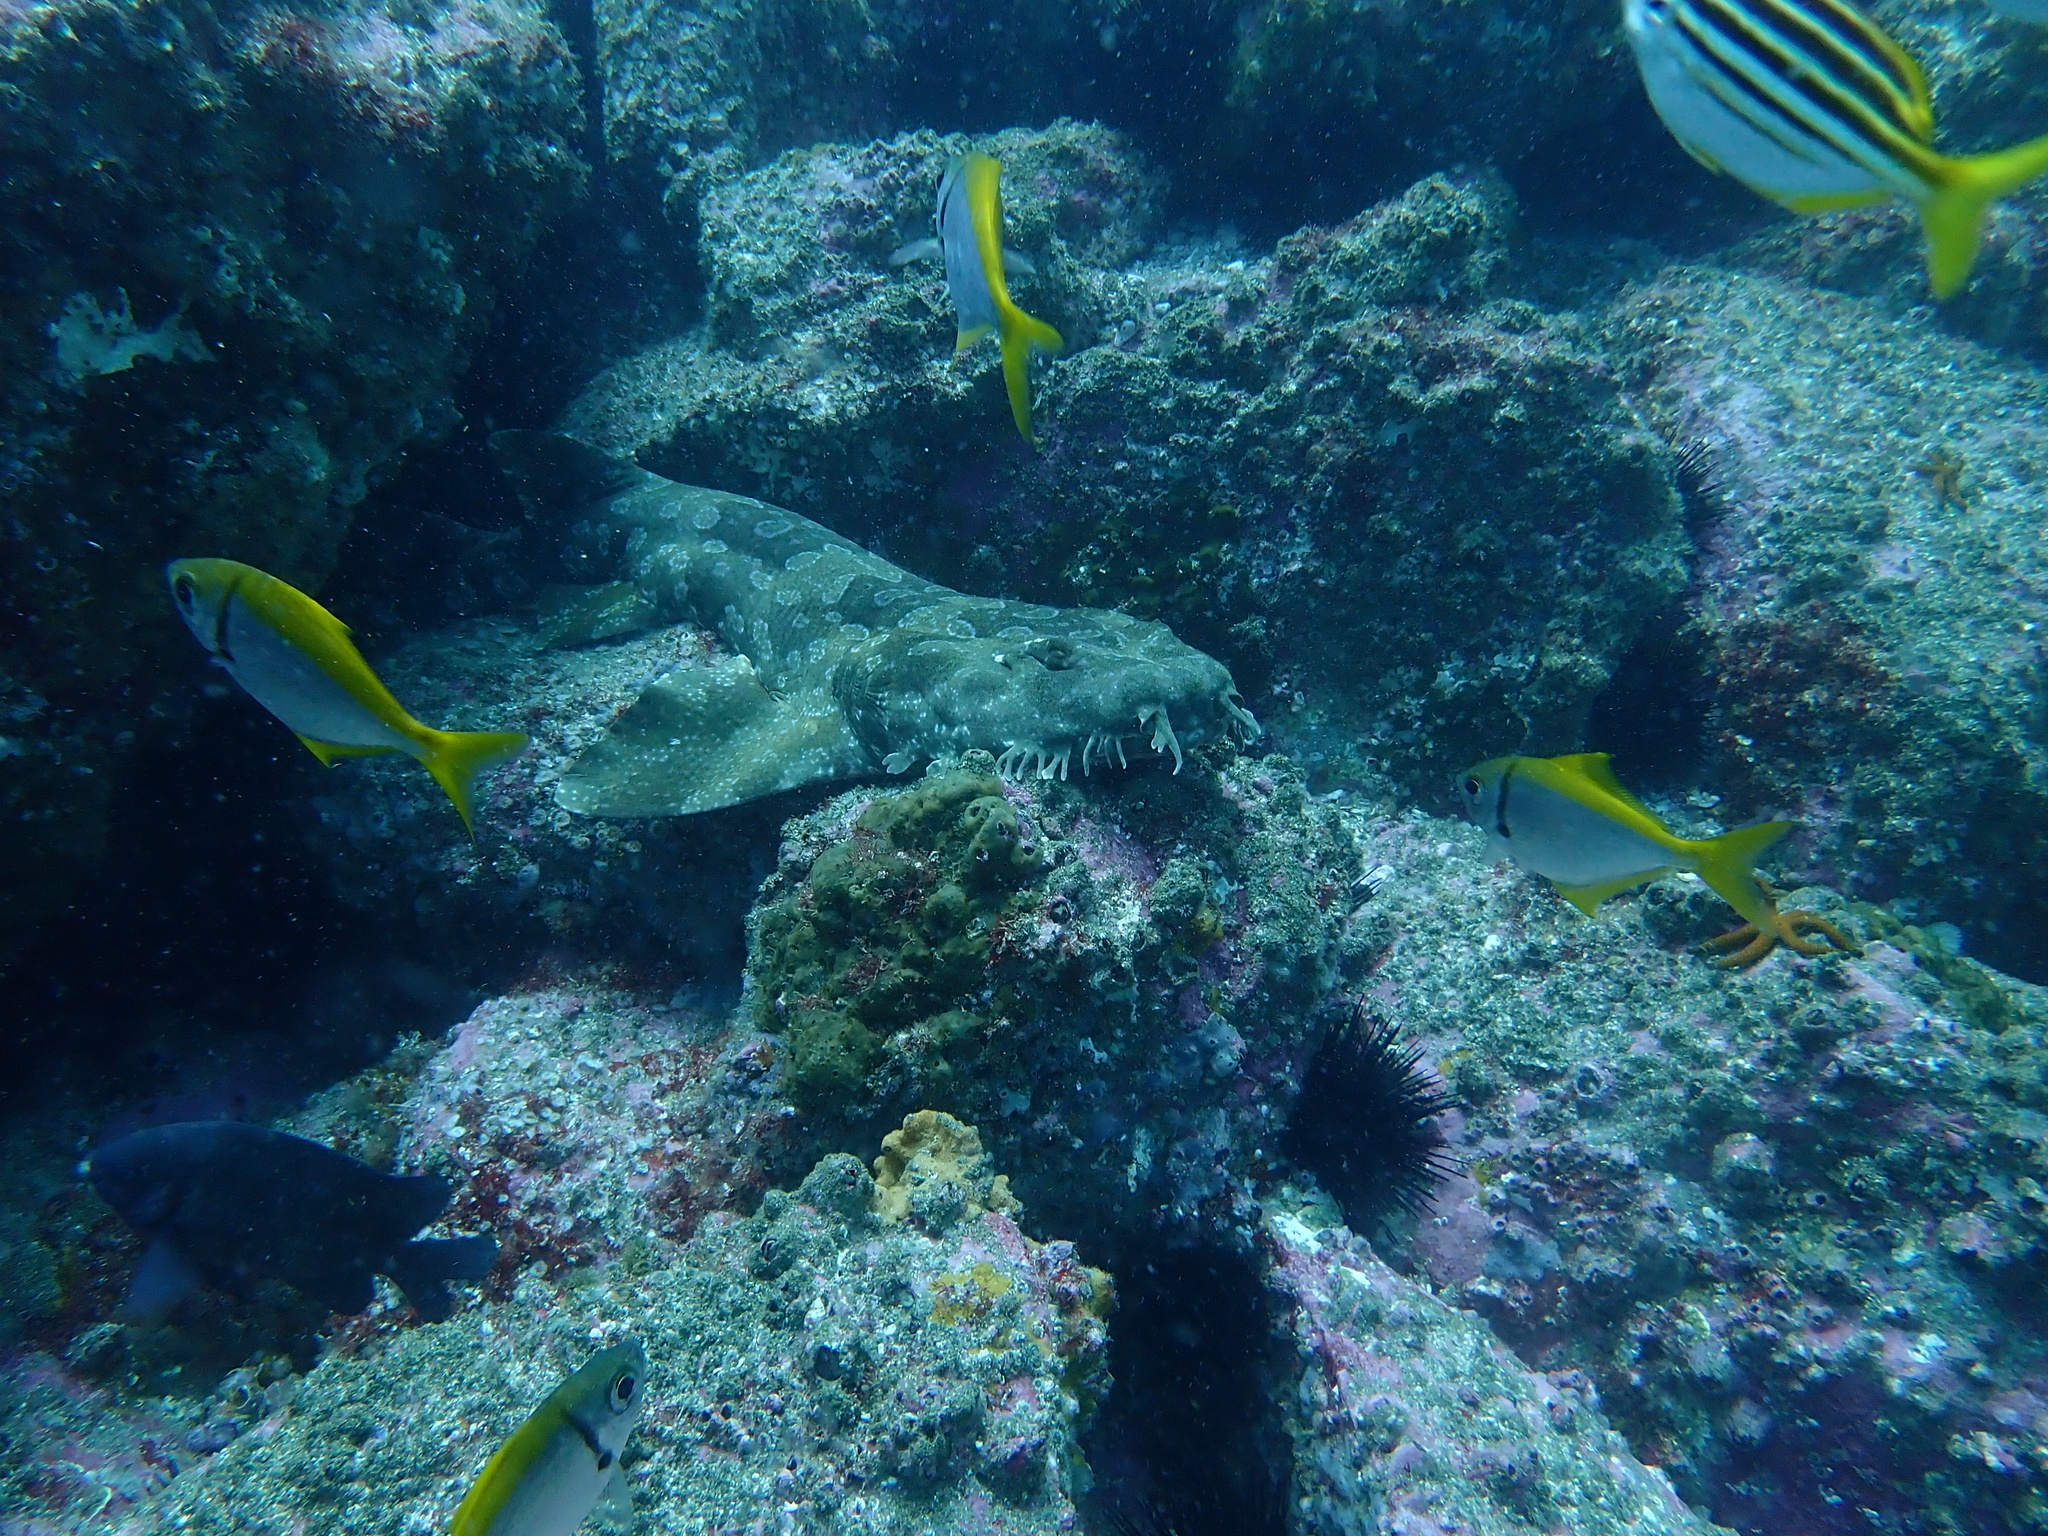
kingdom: Animalia
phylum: Chordata
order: Perciformes
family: Monodactylidae
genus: Schuettea
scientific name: Schuettea scalaripinnis
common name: Eastern pomfred
